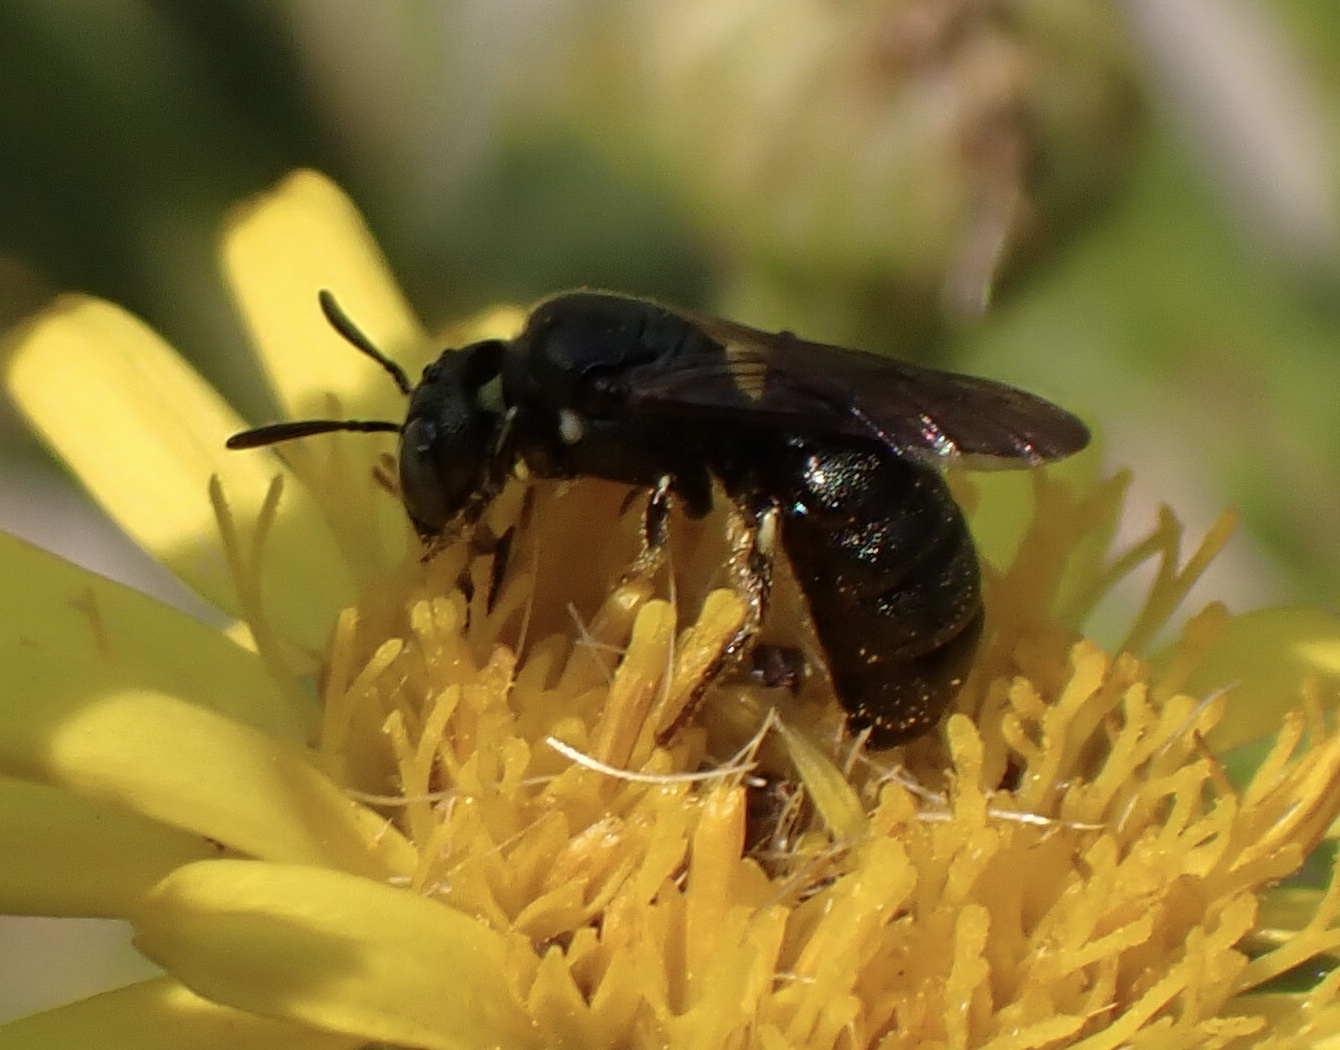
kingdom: Animalia
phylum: Arthropoda
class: Insecta
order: Hymenoptera
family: Apidae
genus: Ceratina
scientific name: Ceratina dallatorreana
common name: Dalla torre's small carpenter bee
